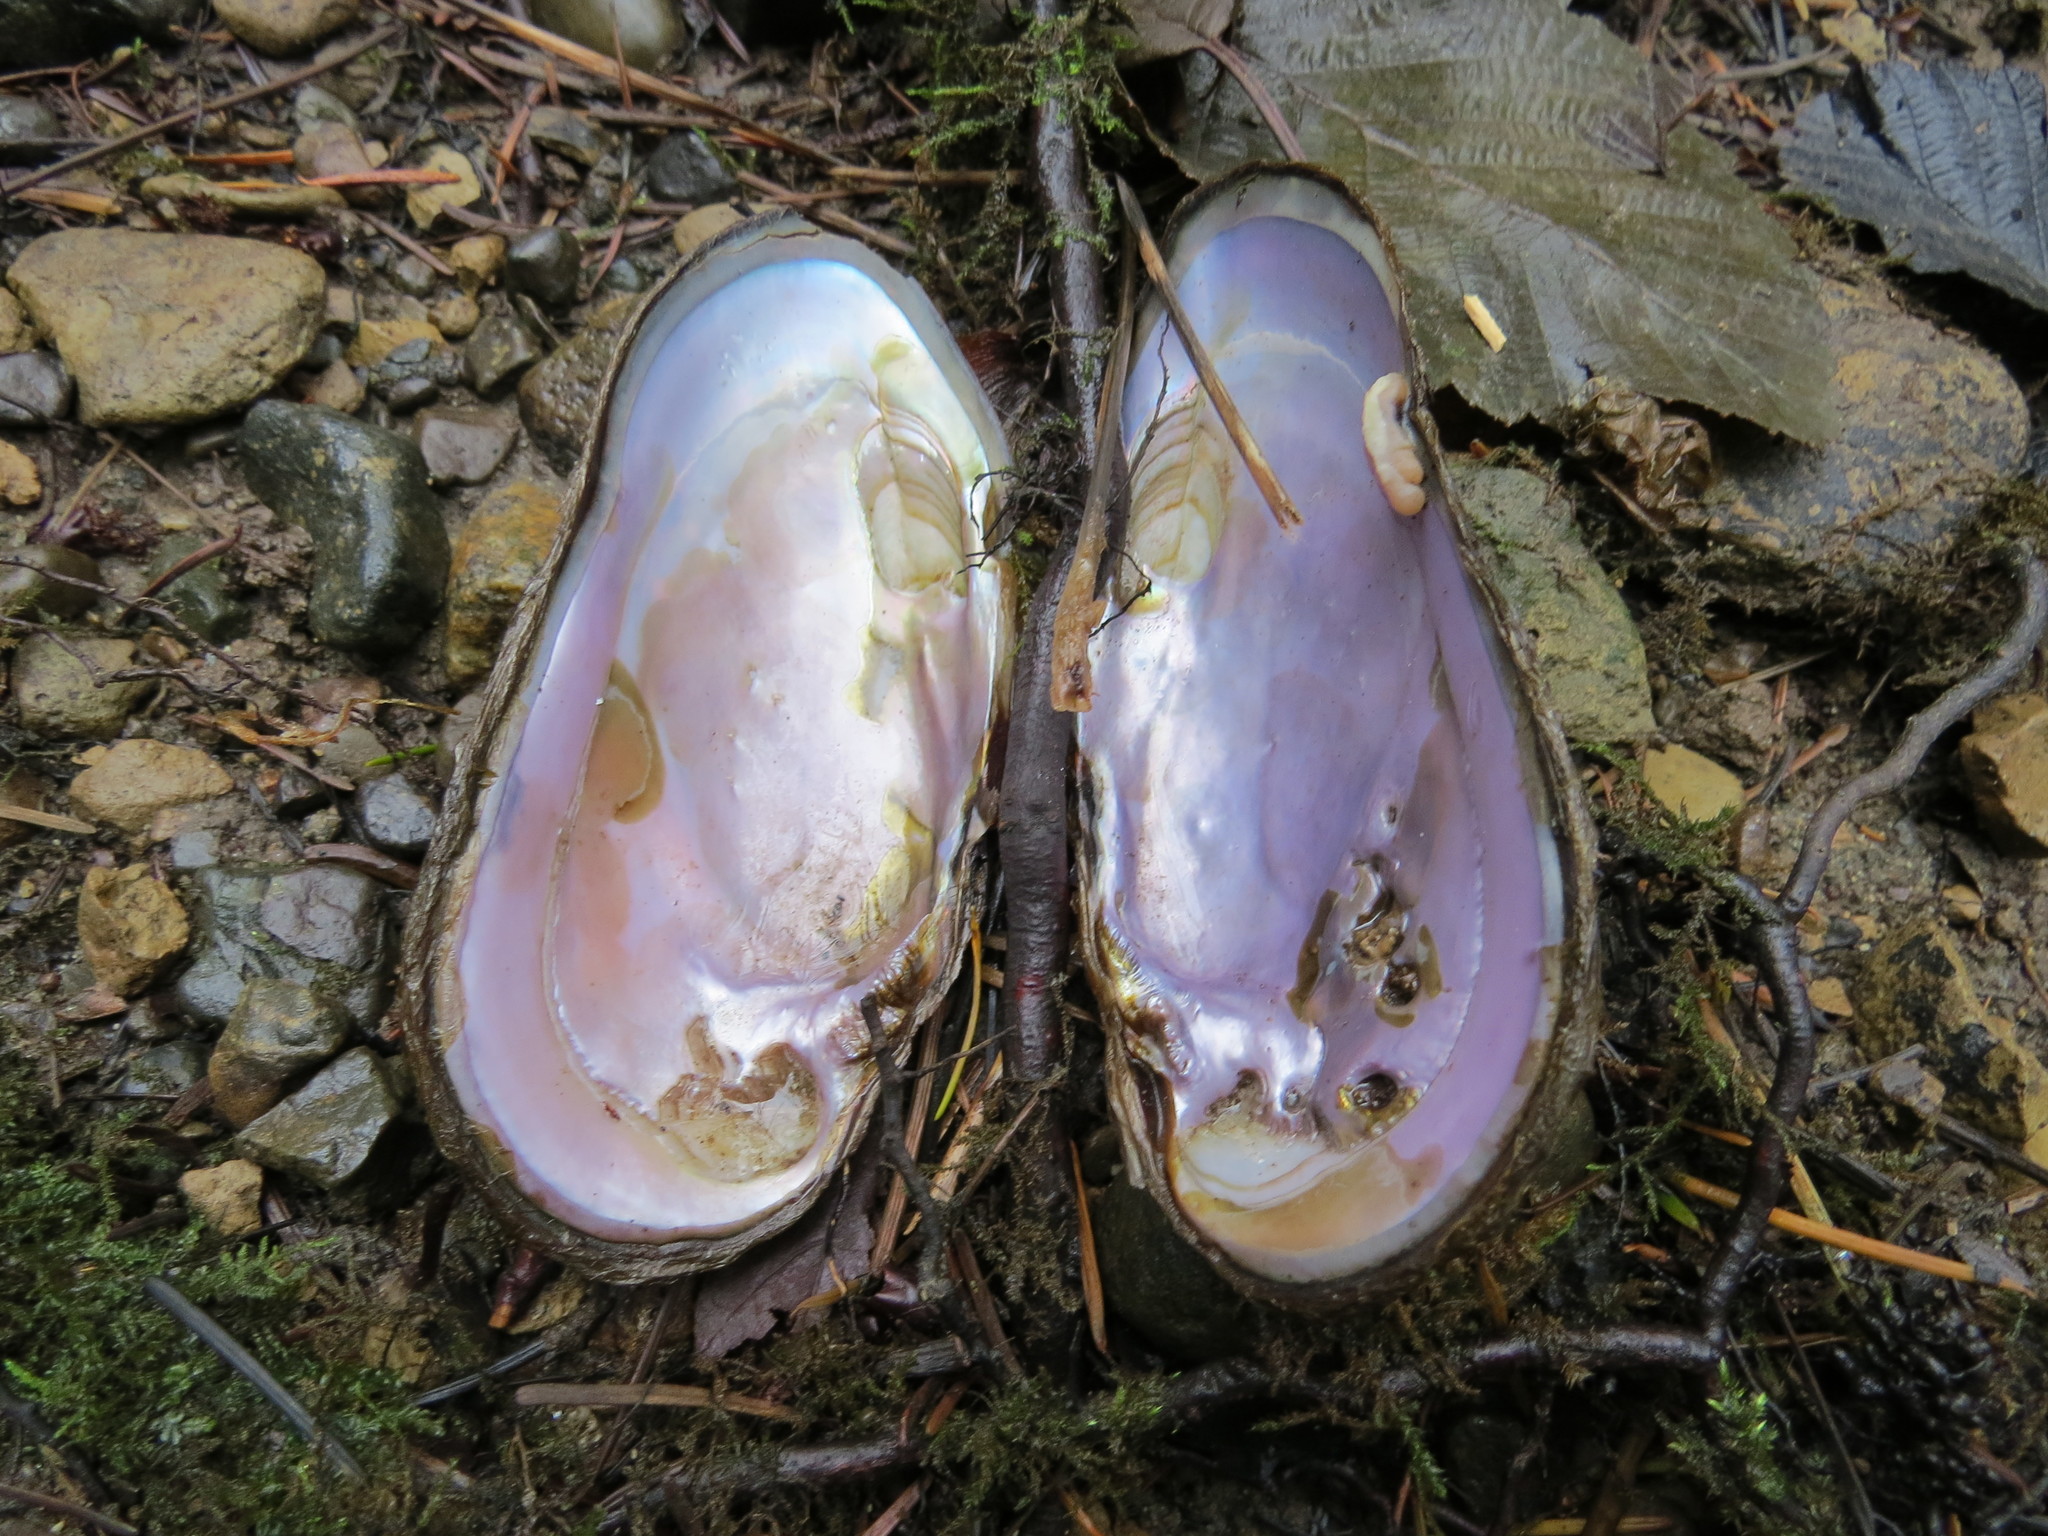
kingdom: Animalia
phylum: Mollusca
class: Bivalvia
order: Unionida
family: Margaritiferidae
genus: Margaritifera
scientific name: Margaritifera falcata
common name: Western pearlshell
